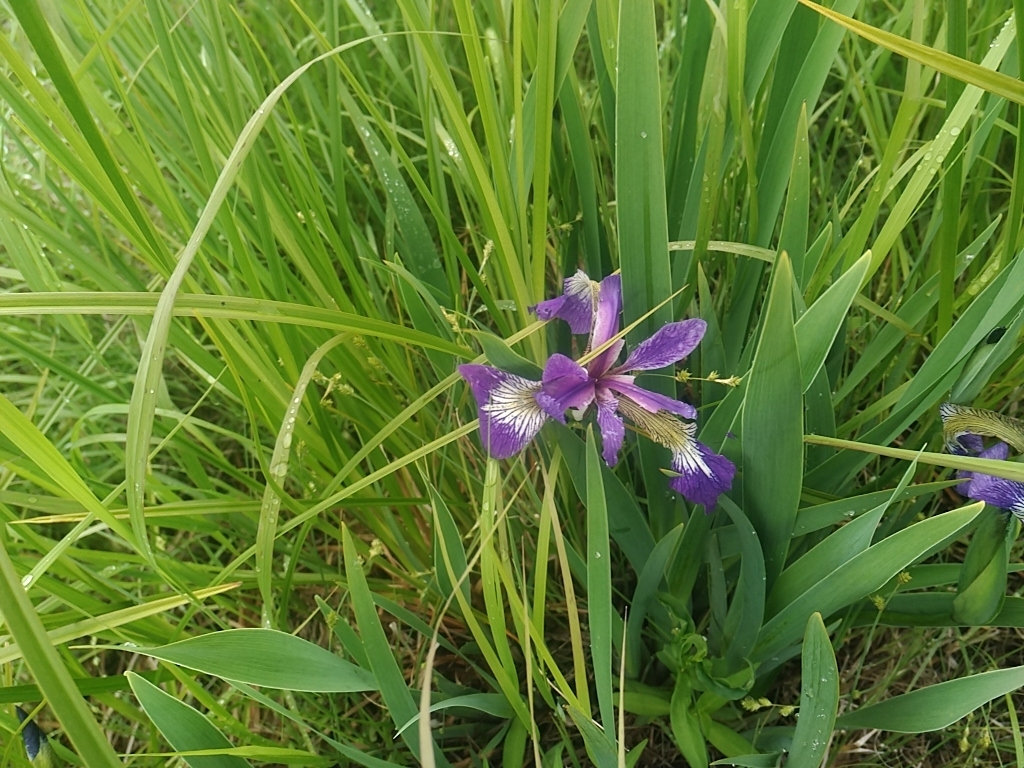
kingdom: Plantae
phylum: Tracheophyta
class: Liliopsida
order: Asparagales
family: Iridaceae
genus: Iris
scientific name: Iris versicolor
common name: Purple iris
